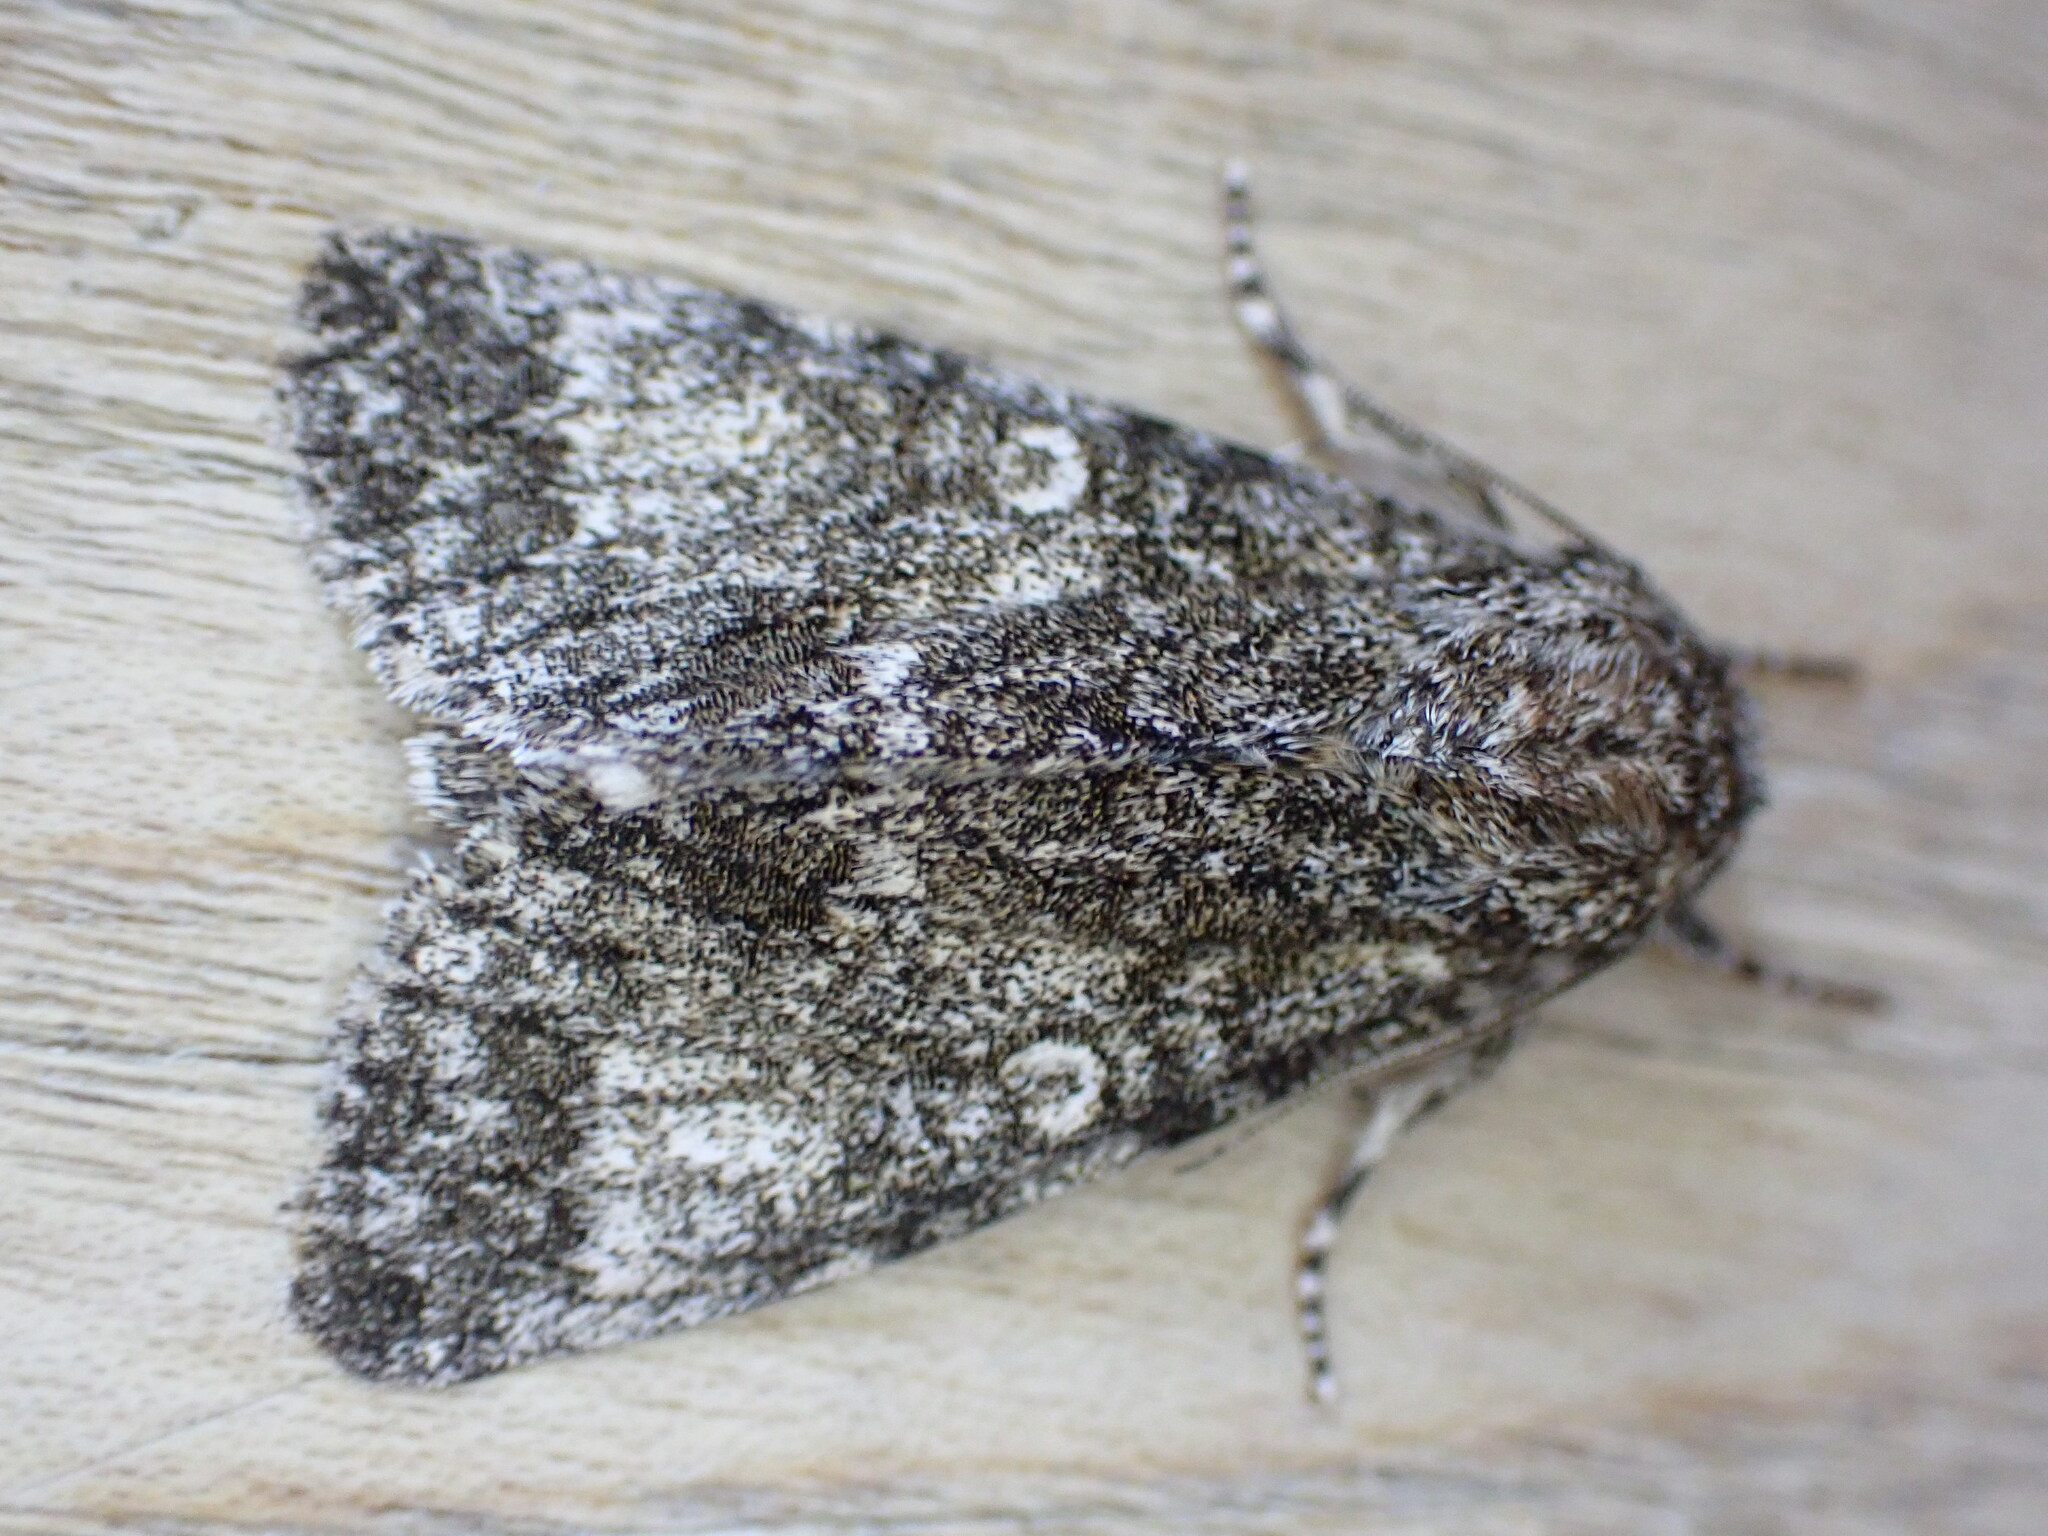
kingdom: Animalia
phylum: Arthropoda
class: Insecta
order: Lepidoptera
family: Noctuidae
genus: Acronicta
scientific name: Acronicta megacephala
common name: Poplar grey
